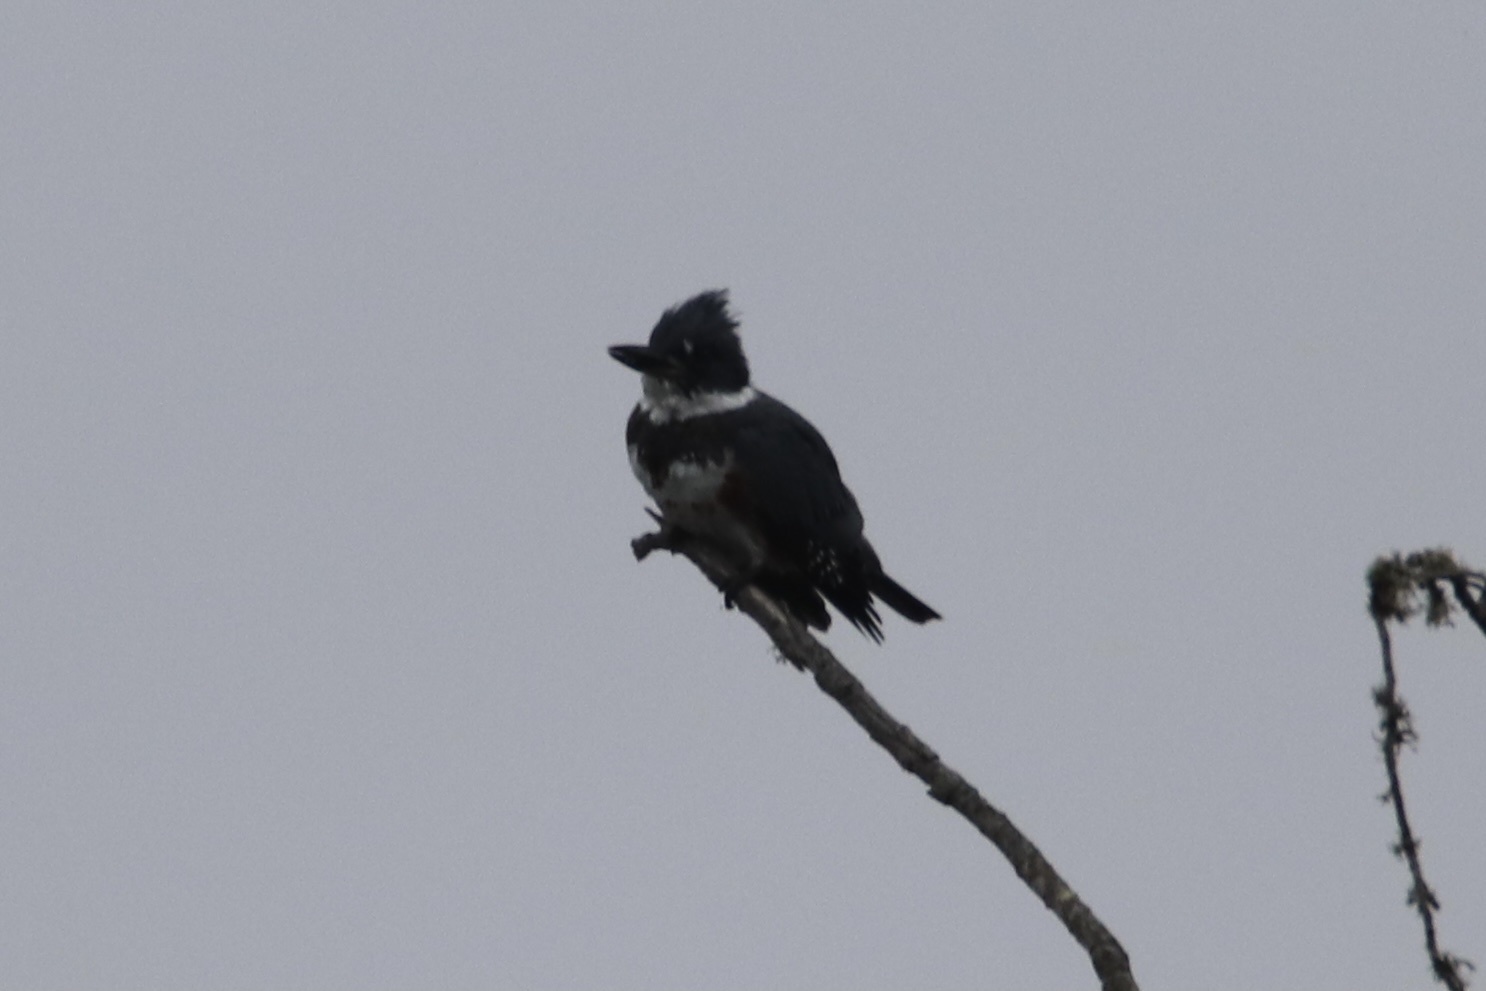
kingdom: Animalia
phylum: Chordata
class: Aves
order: Coraciiformes
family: Alcedinidae
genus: Megaceryle
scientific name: Megaceryle alcyon
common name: Belted kingfisher
